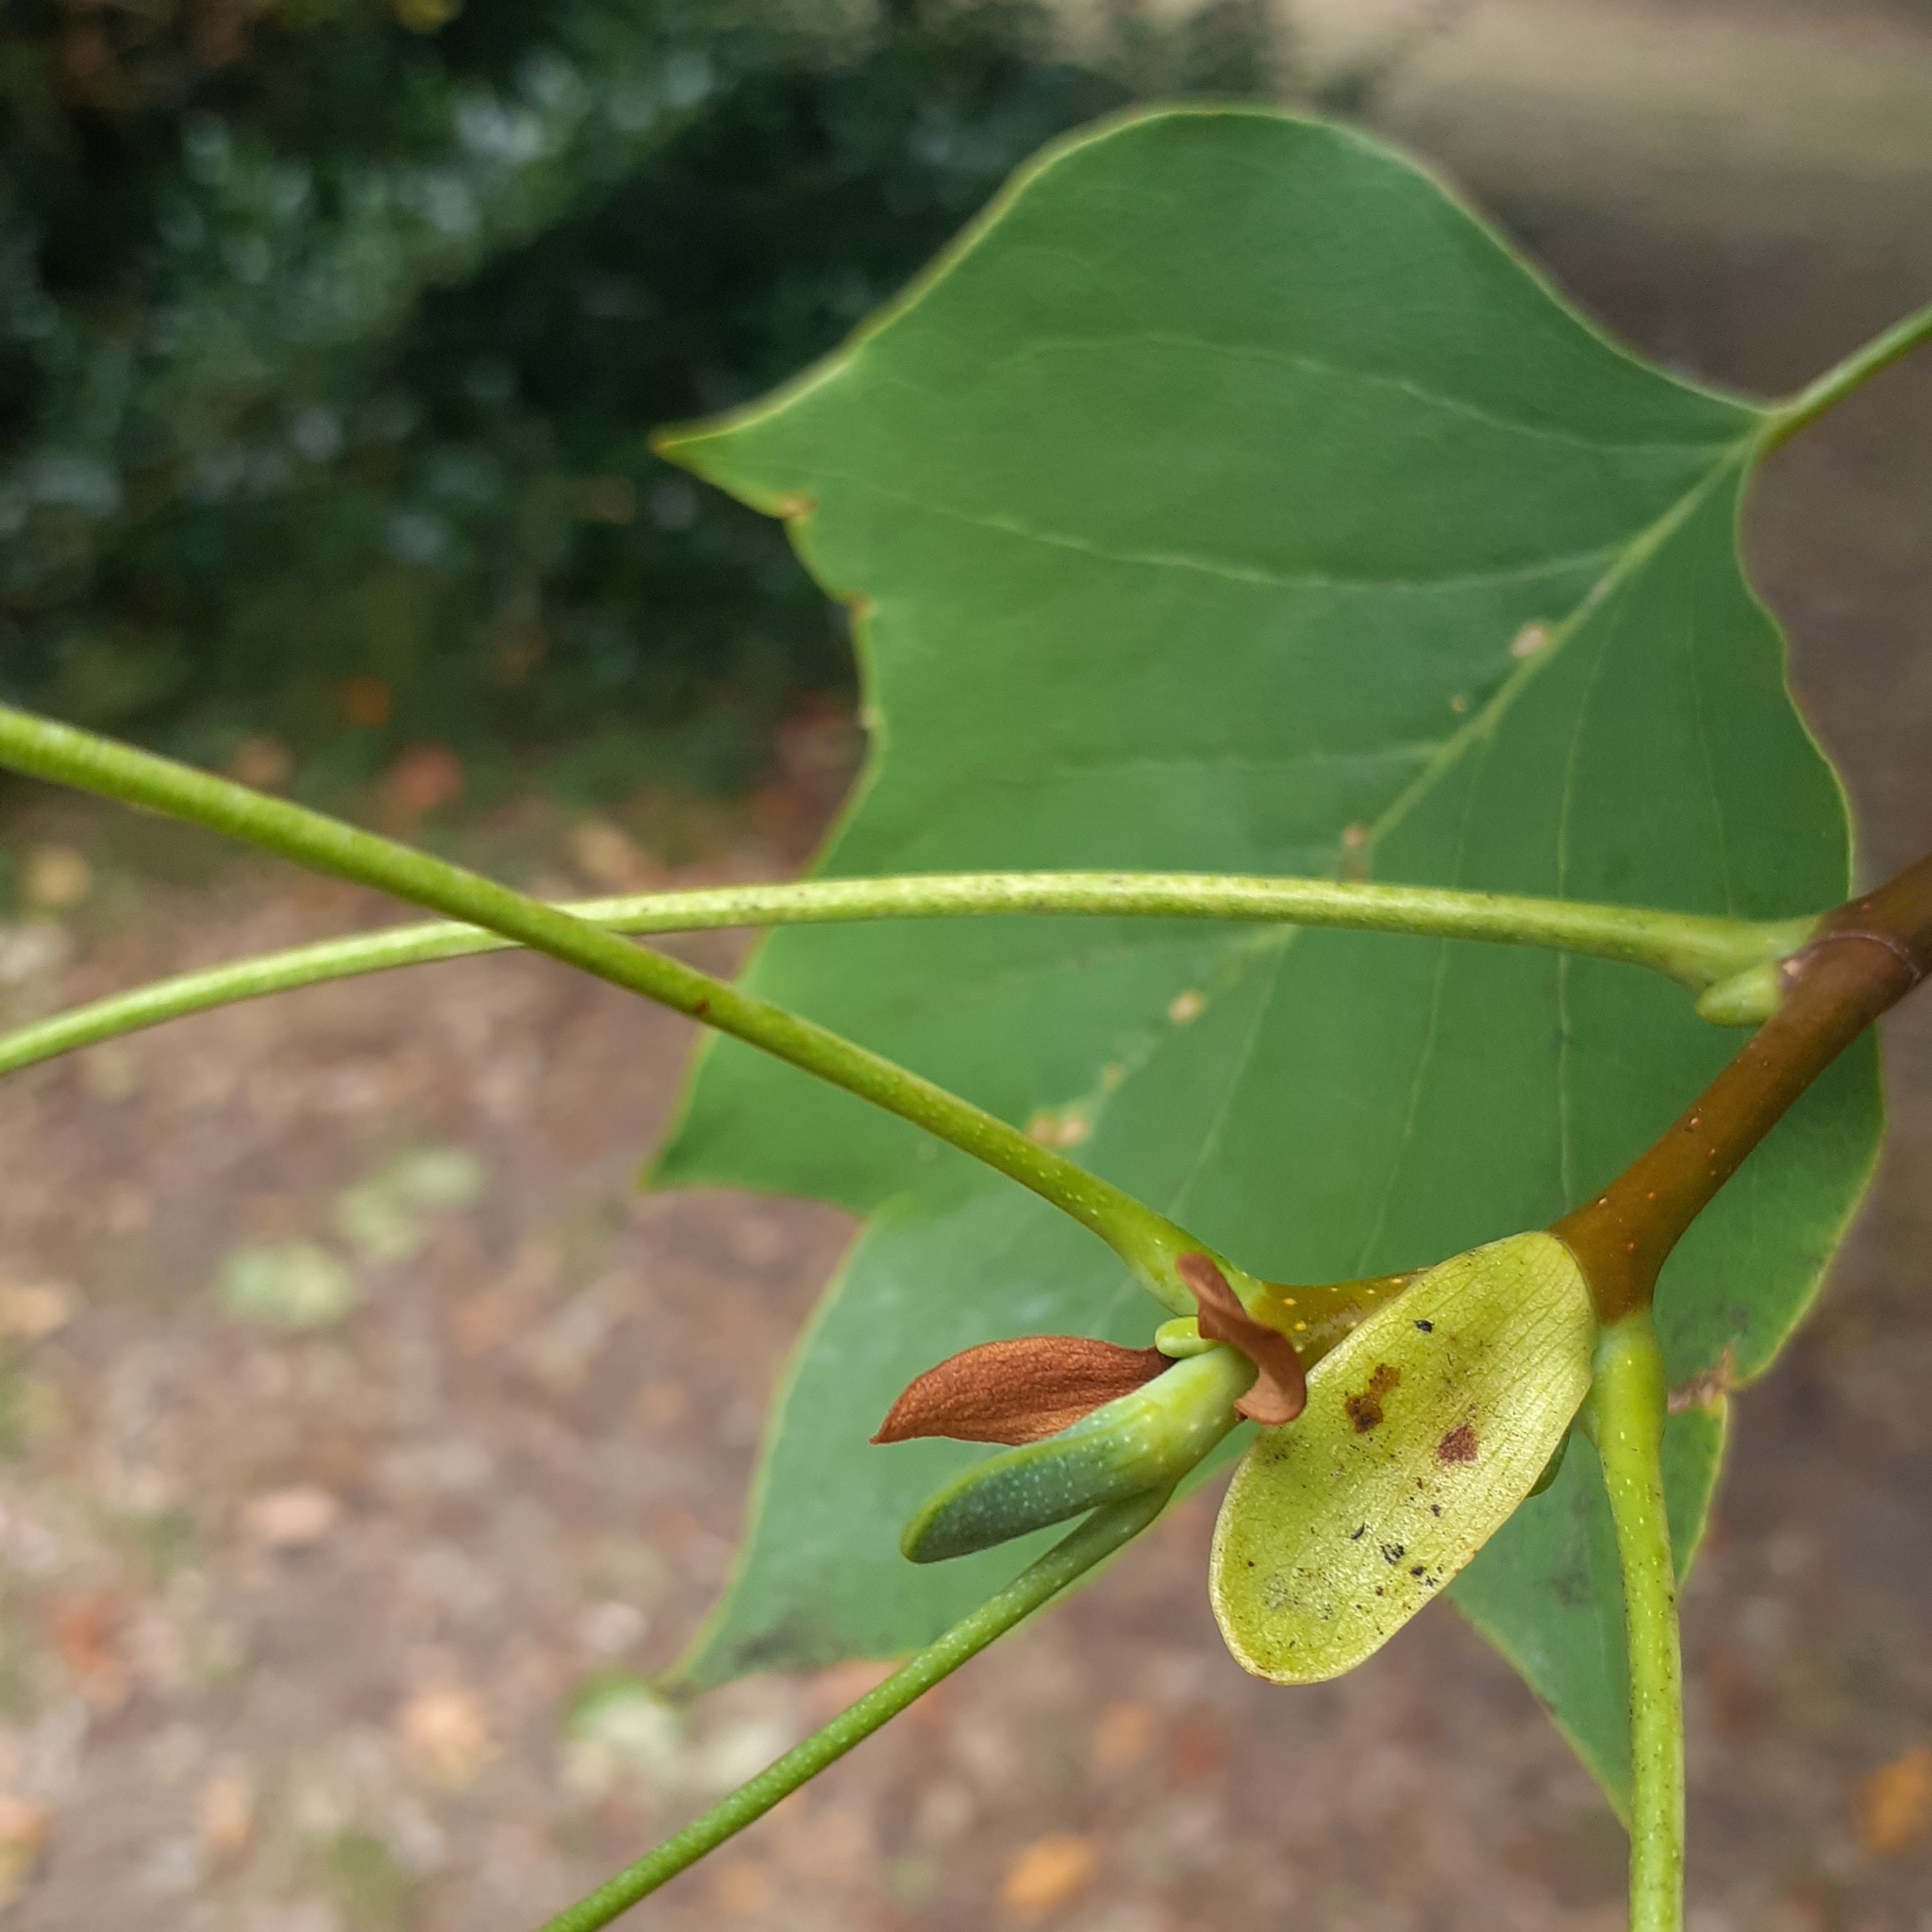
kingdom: Plantae
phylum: Tracheophyta
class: Magnoliopsida
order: Magnoliales
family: Magnoliaceae
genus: Liriodendron
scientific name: Liriodendron tulipifera
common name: Tulip tree
